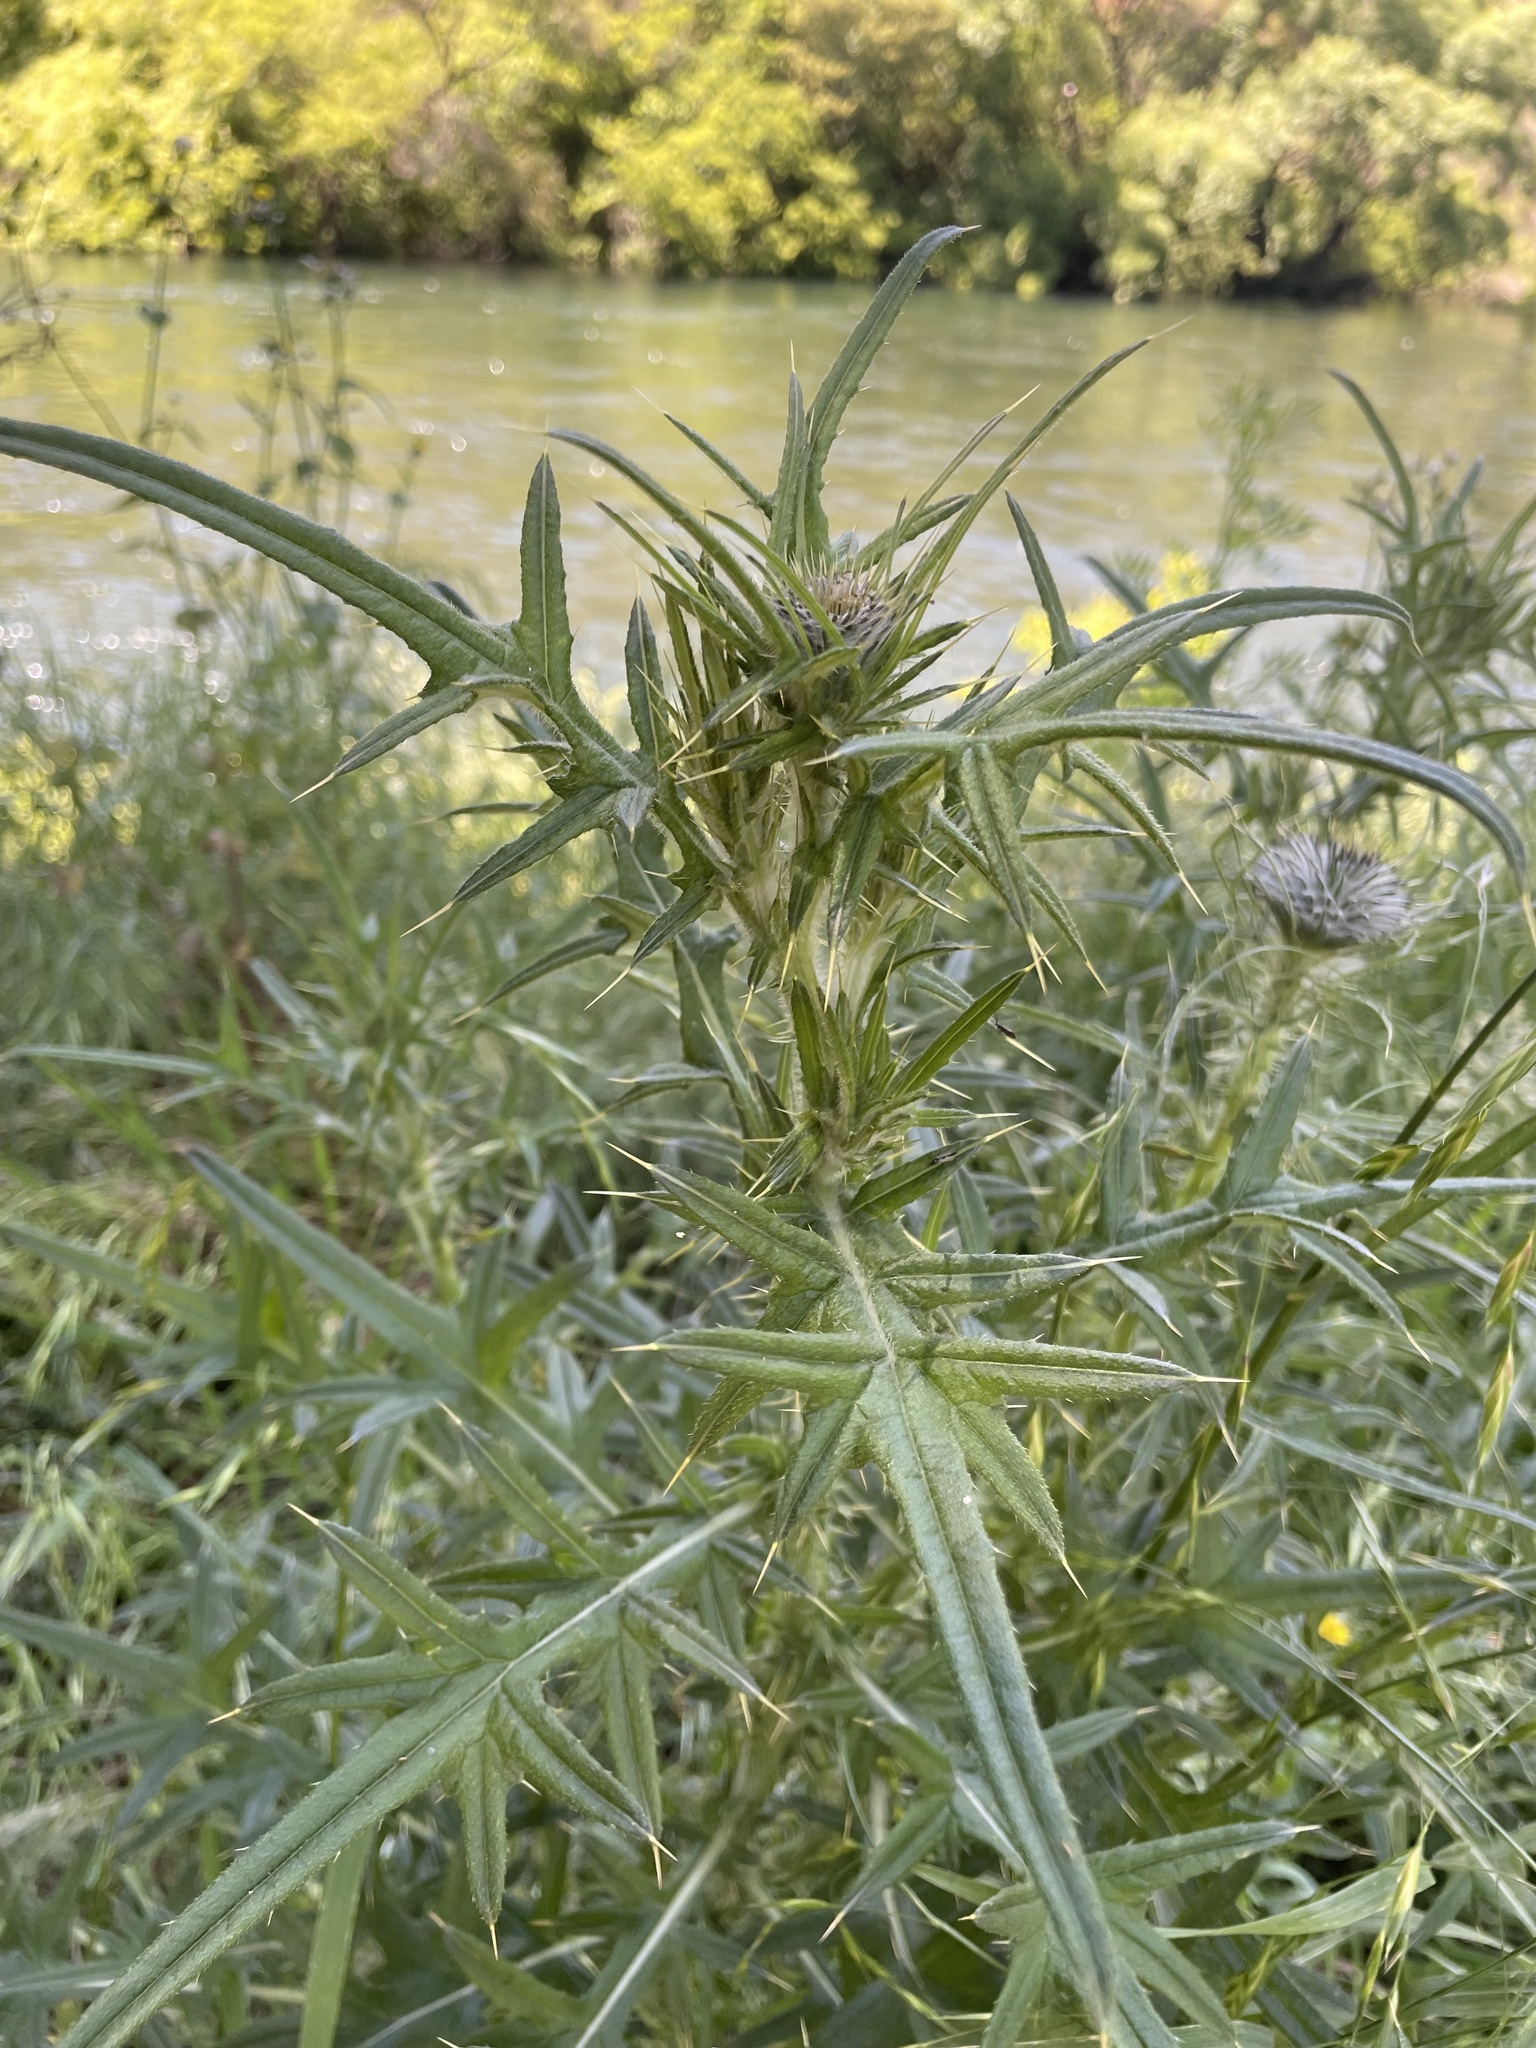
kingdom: Plantae
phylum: Tracheophyta
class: Magnoliopsida
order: Asterales
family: Asteraceae
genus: Cirsium
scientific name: Cirsium vulgare
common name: Bull thistle
